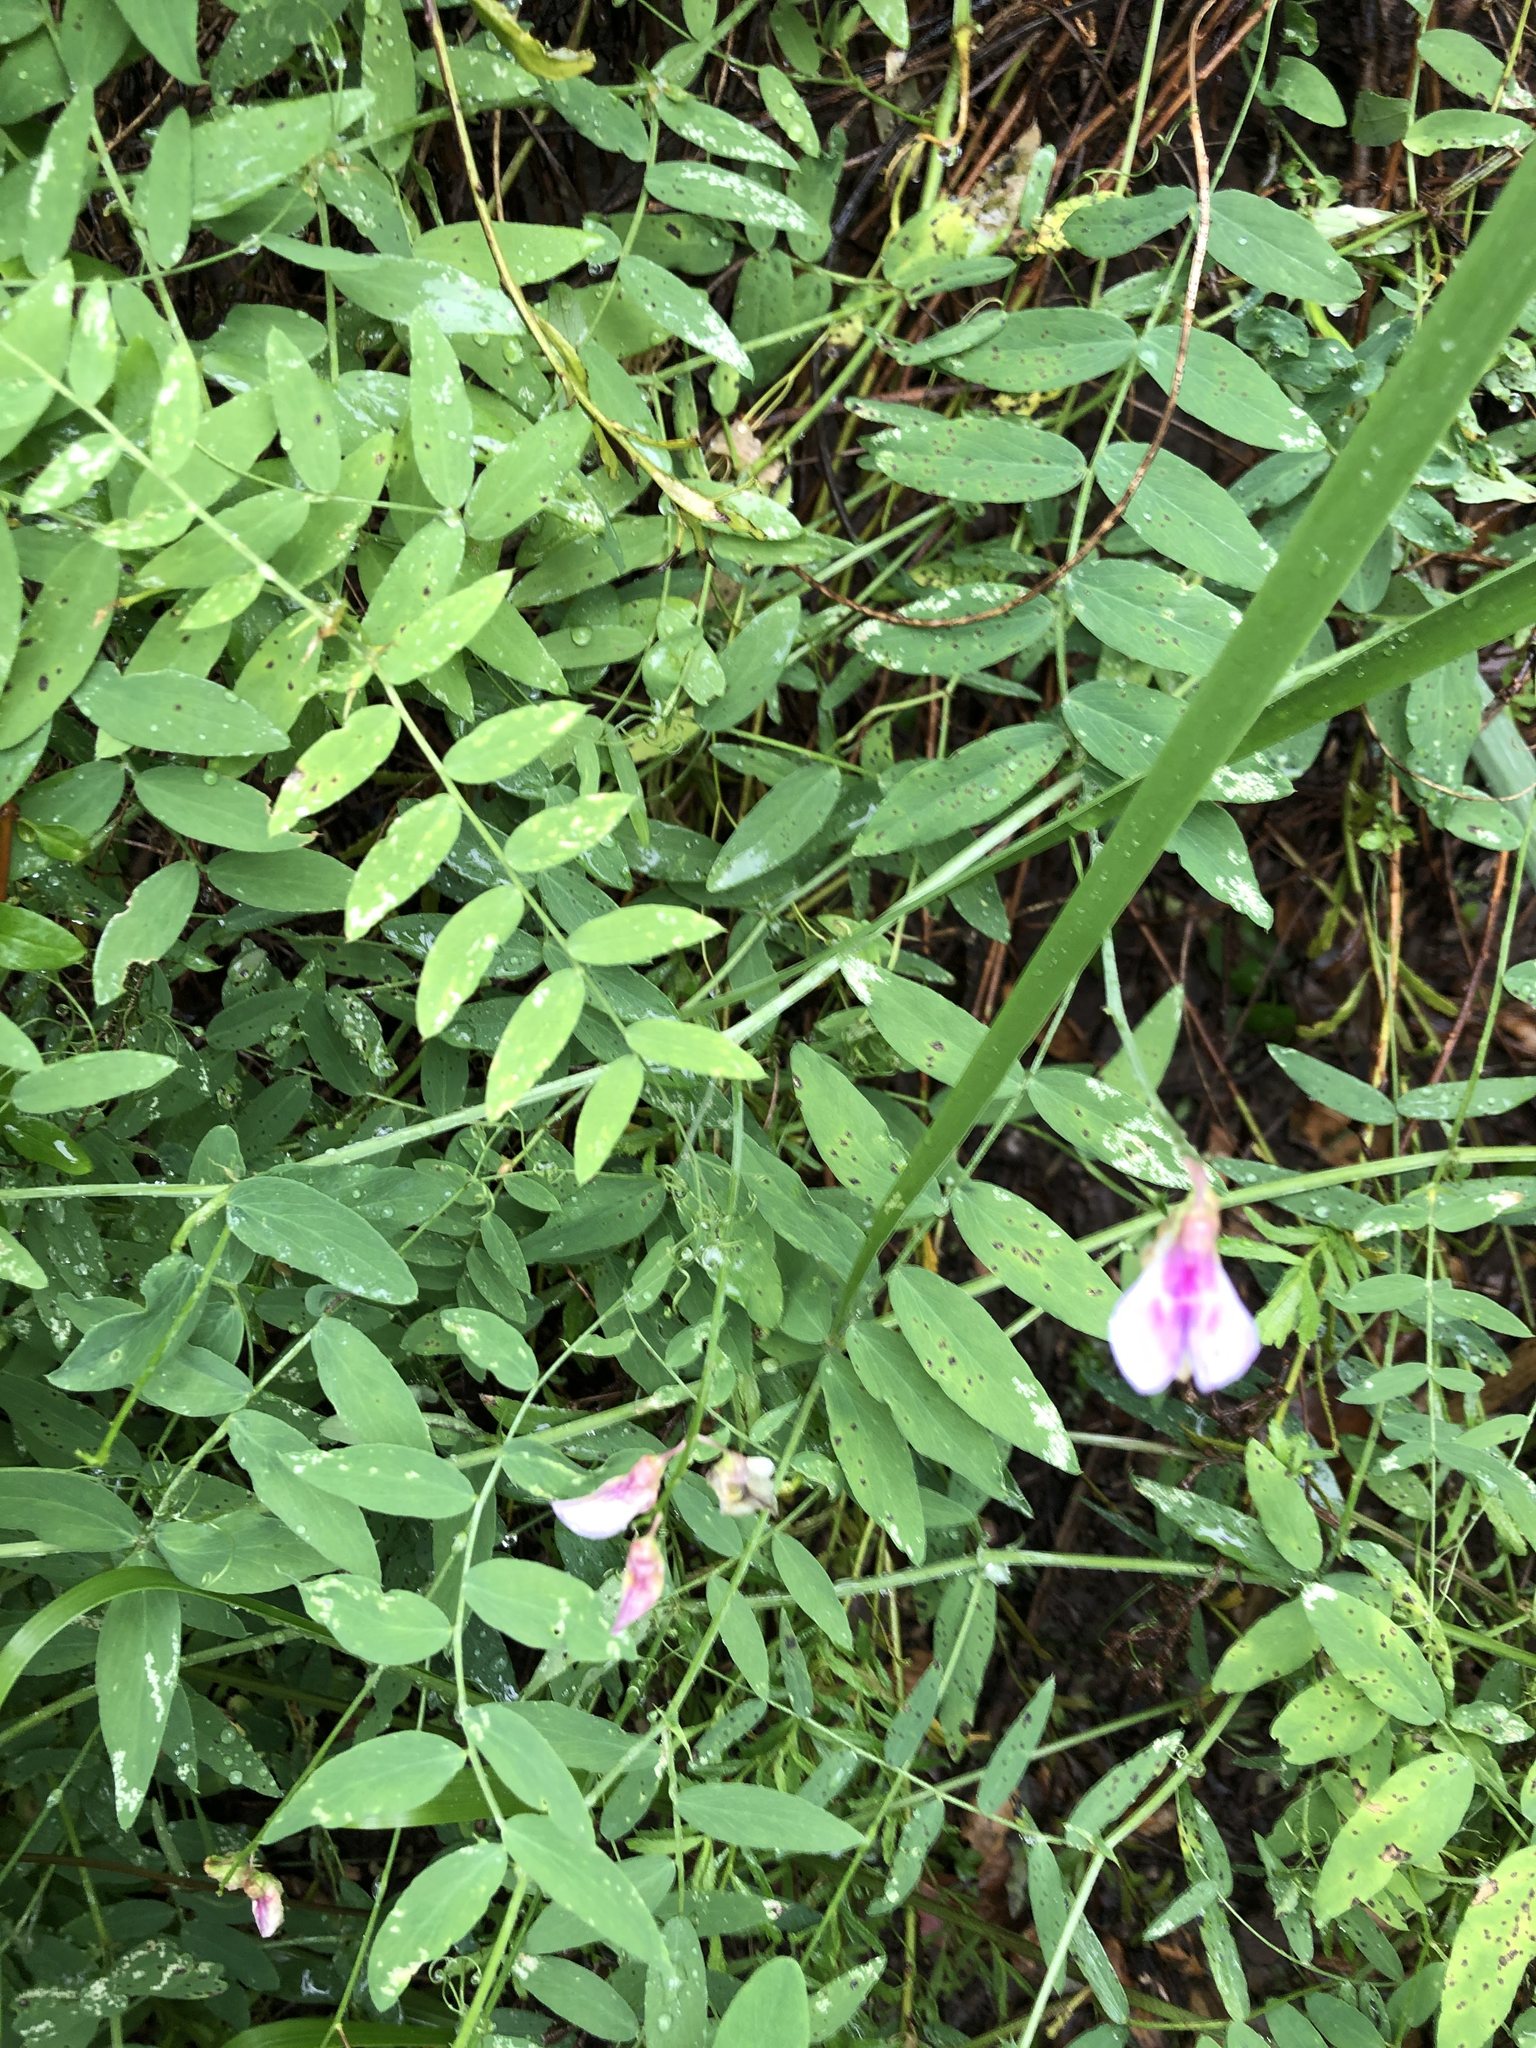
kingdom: Plantae
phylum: Tracheophyta
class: Magnoliopsida
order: Fabales
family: Fabaceae
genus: Lathyrus
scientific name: Lathyrus vestitus
